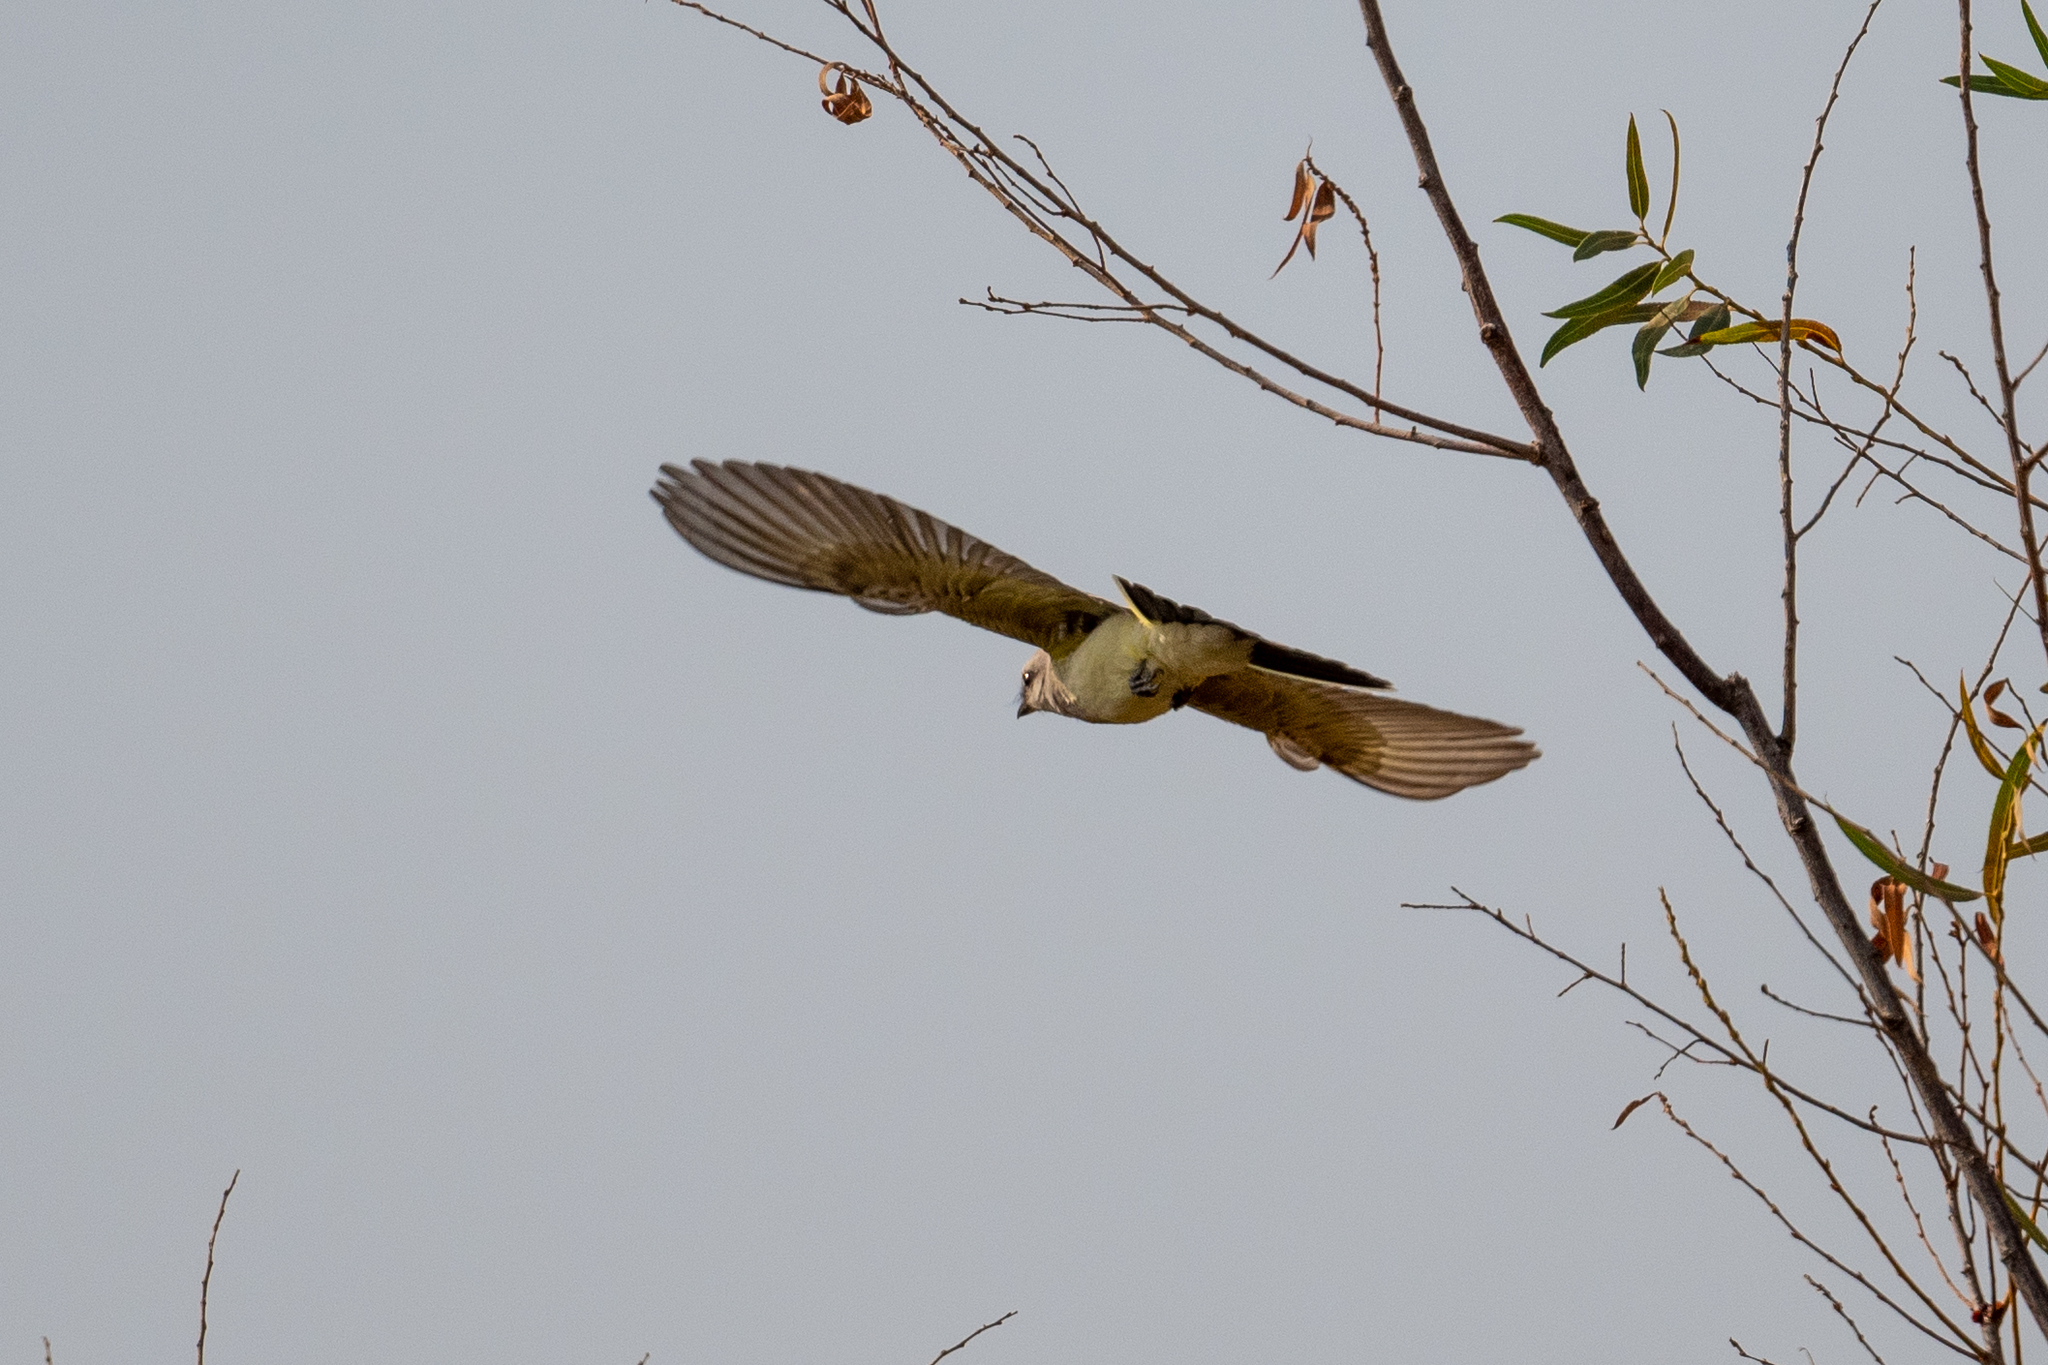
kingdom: Animalia
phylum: Chordata
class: Aves
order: Passeriformes
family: Tyrannidae
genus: Tyrannus
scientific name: Tyrannus verticalis
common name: Western kingbird
